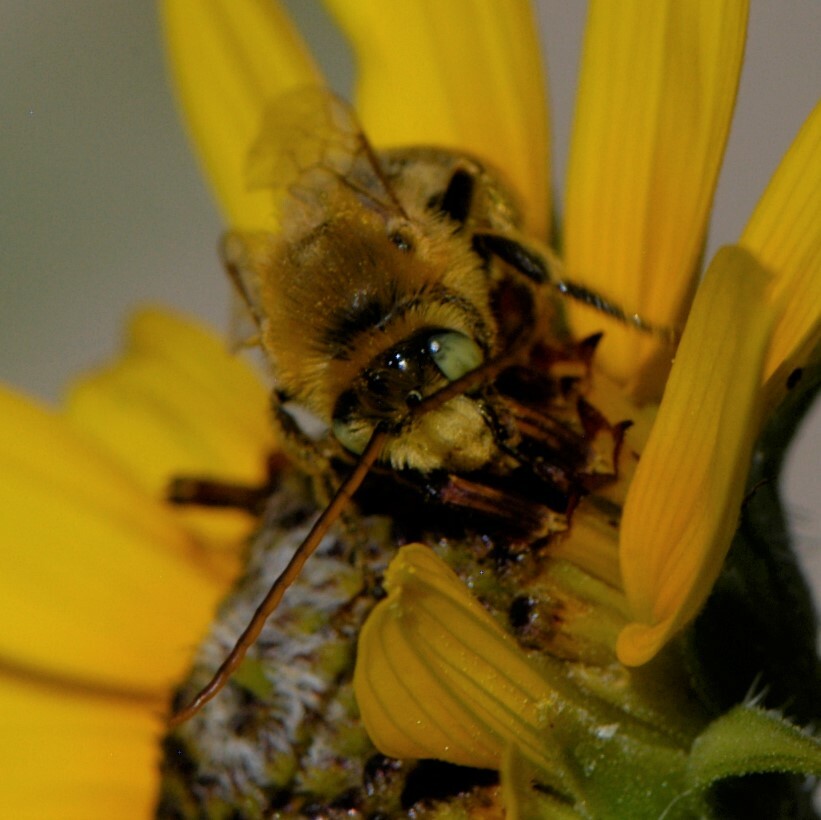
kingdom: Animalia
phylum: Arthropoda
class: Insecta
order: Hymenoptera
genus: Eumelissodes
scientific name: Eumelissodes
